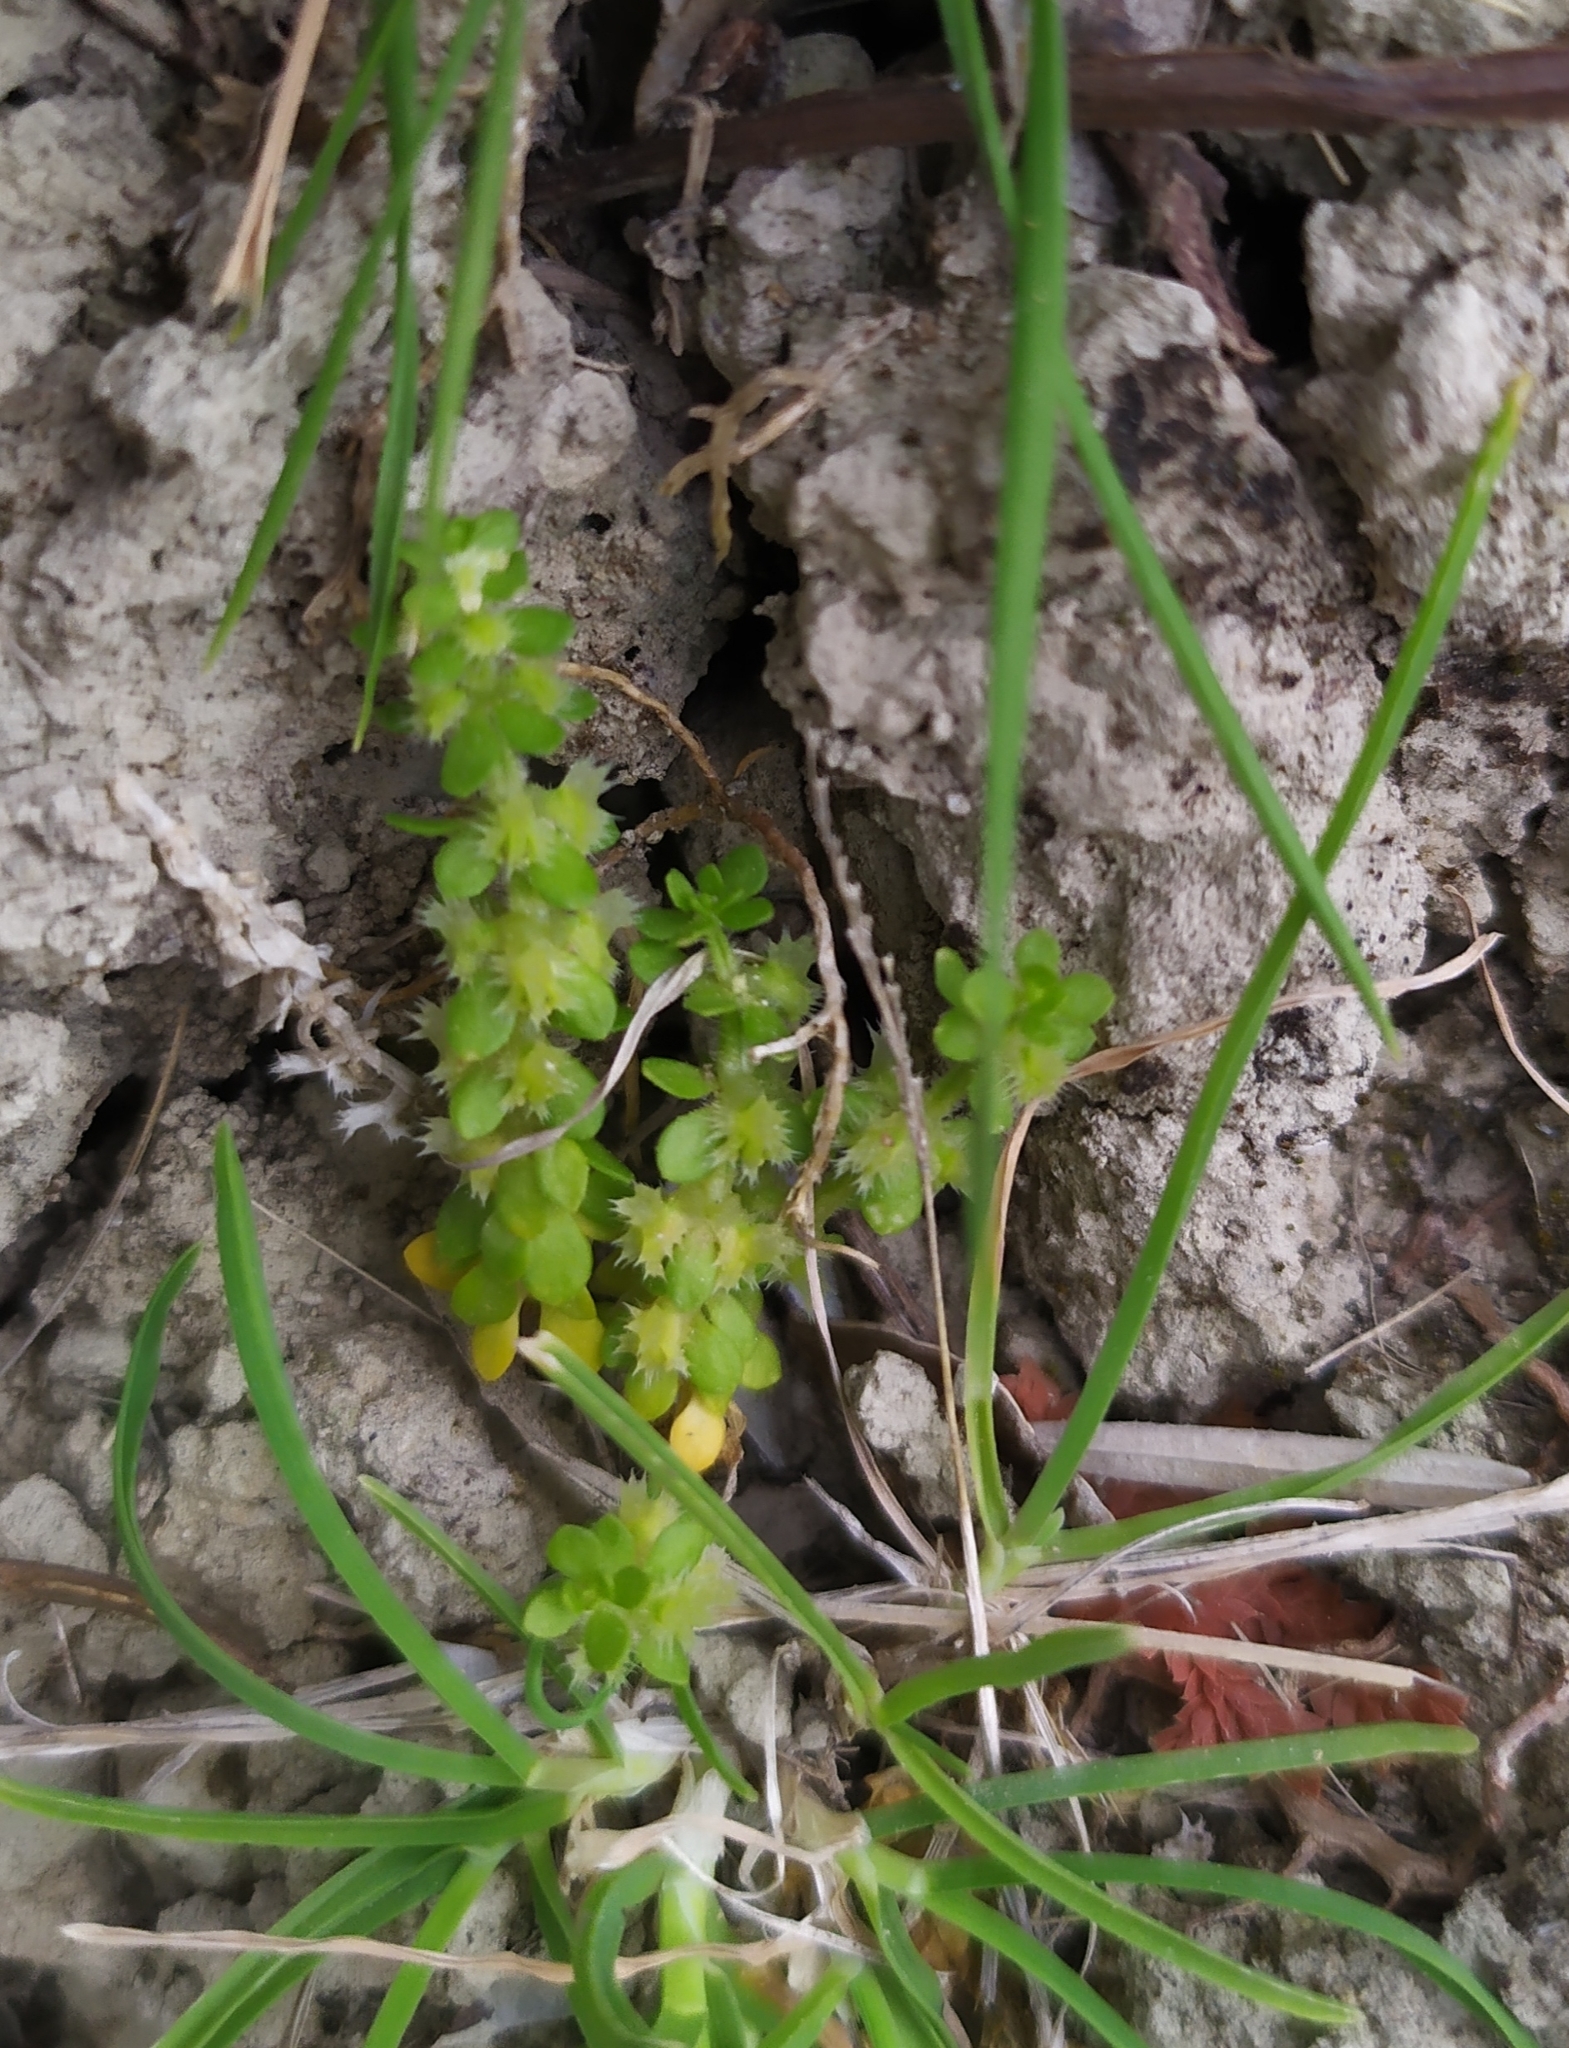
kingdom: Plantae
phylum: Tracheophyta
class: Magnoliopsida
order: Gentianales
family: Rubiaceae
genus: Valantia
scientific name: Valantia muralis
